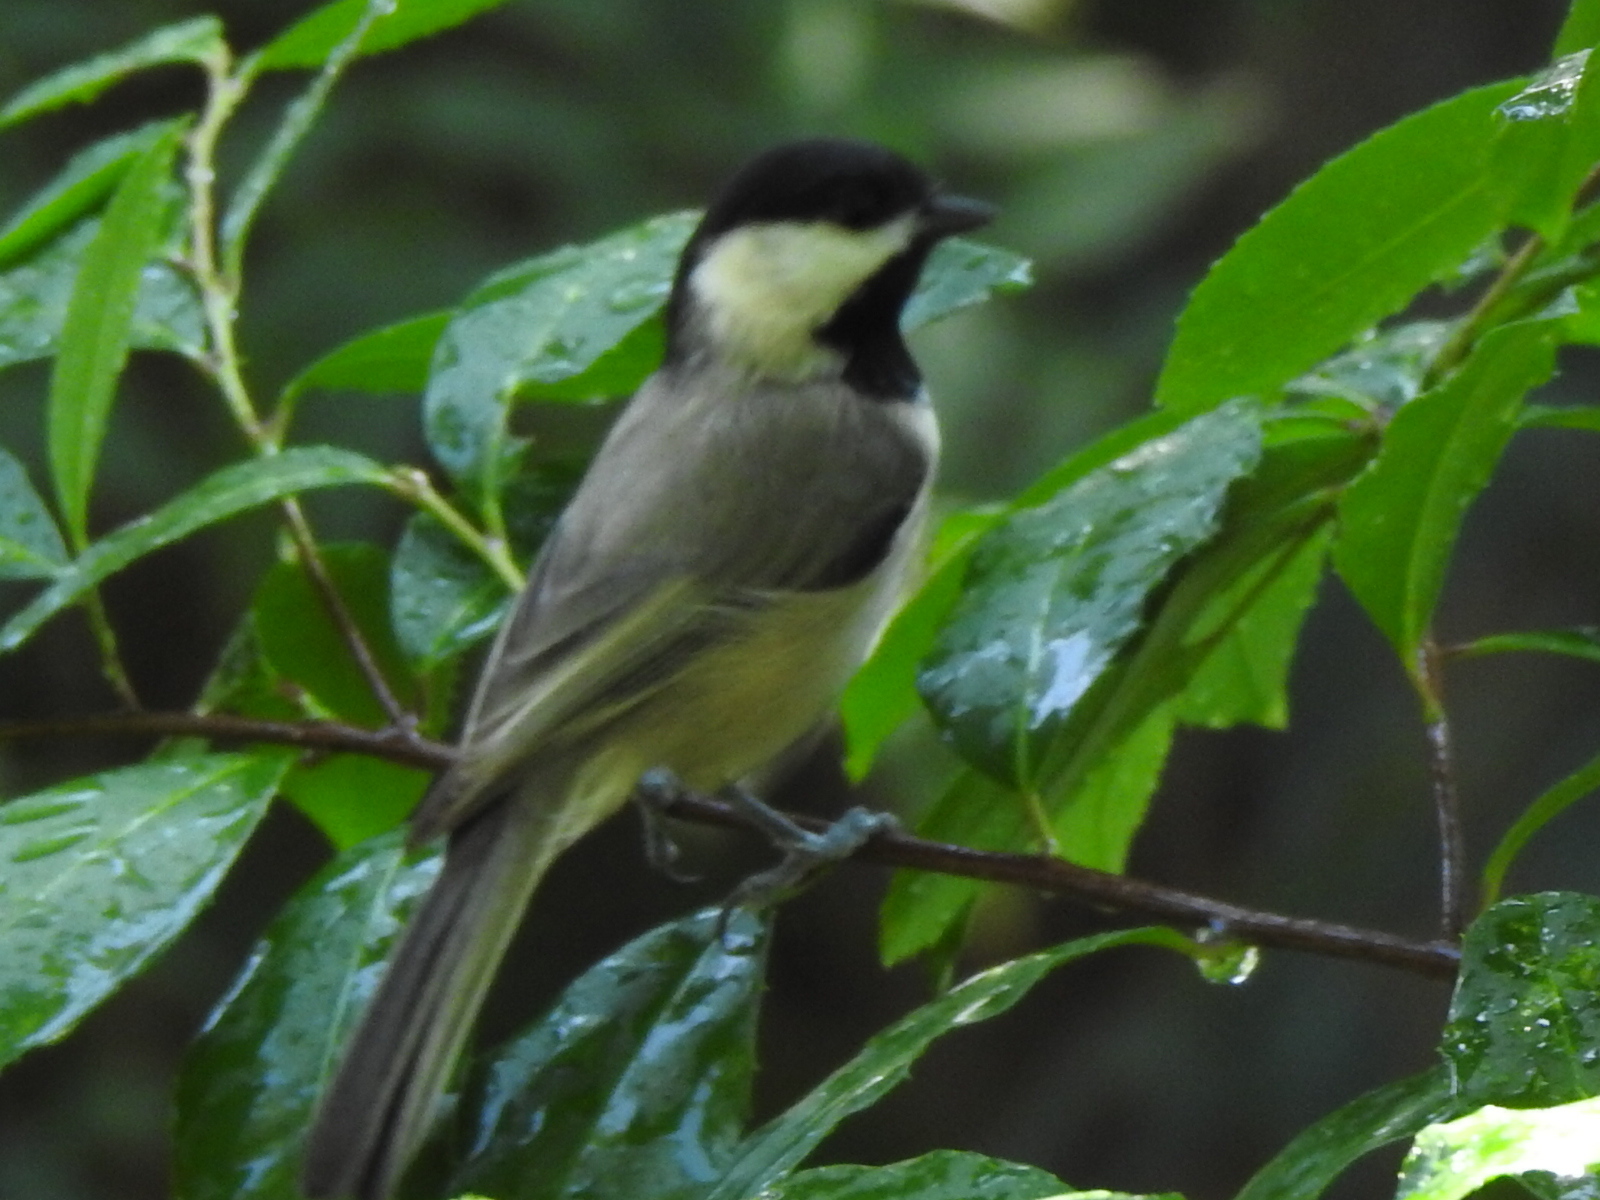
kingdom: Animalia
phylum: Chordata
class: Aves
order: Passeriformes
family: Paridae
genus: Poecile
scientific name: Poecile carolinensis
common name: Carolina chickadee
